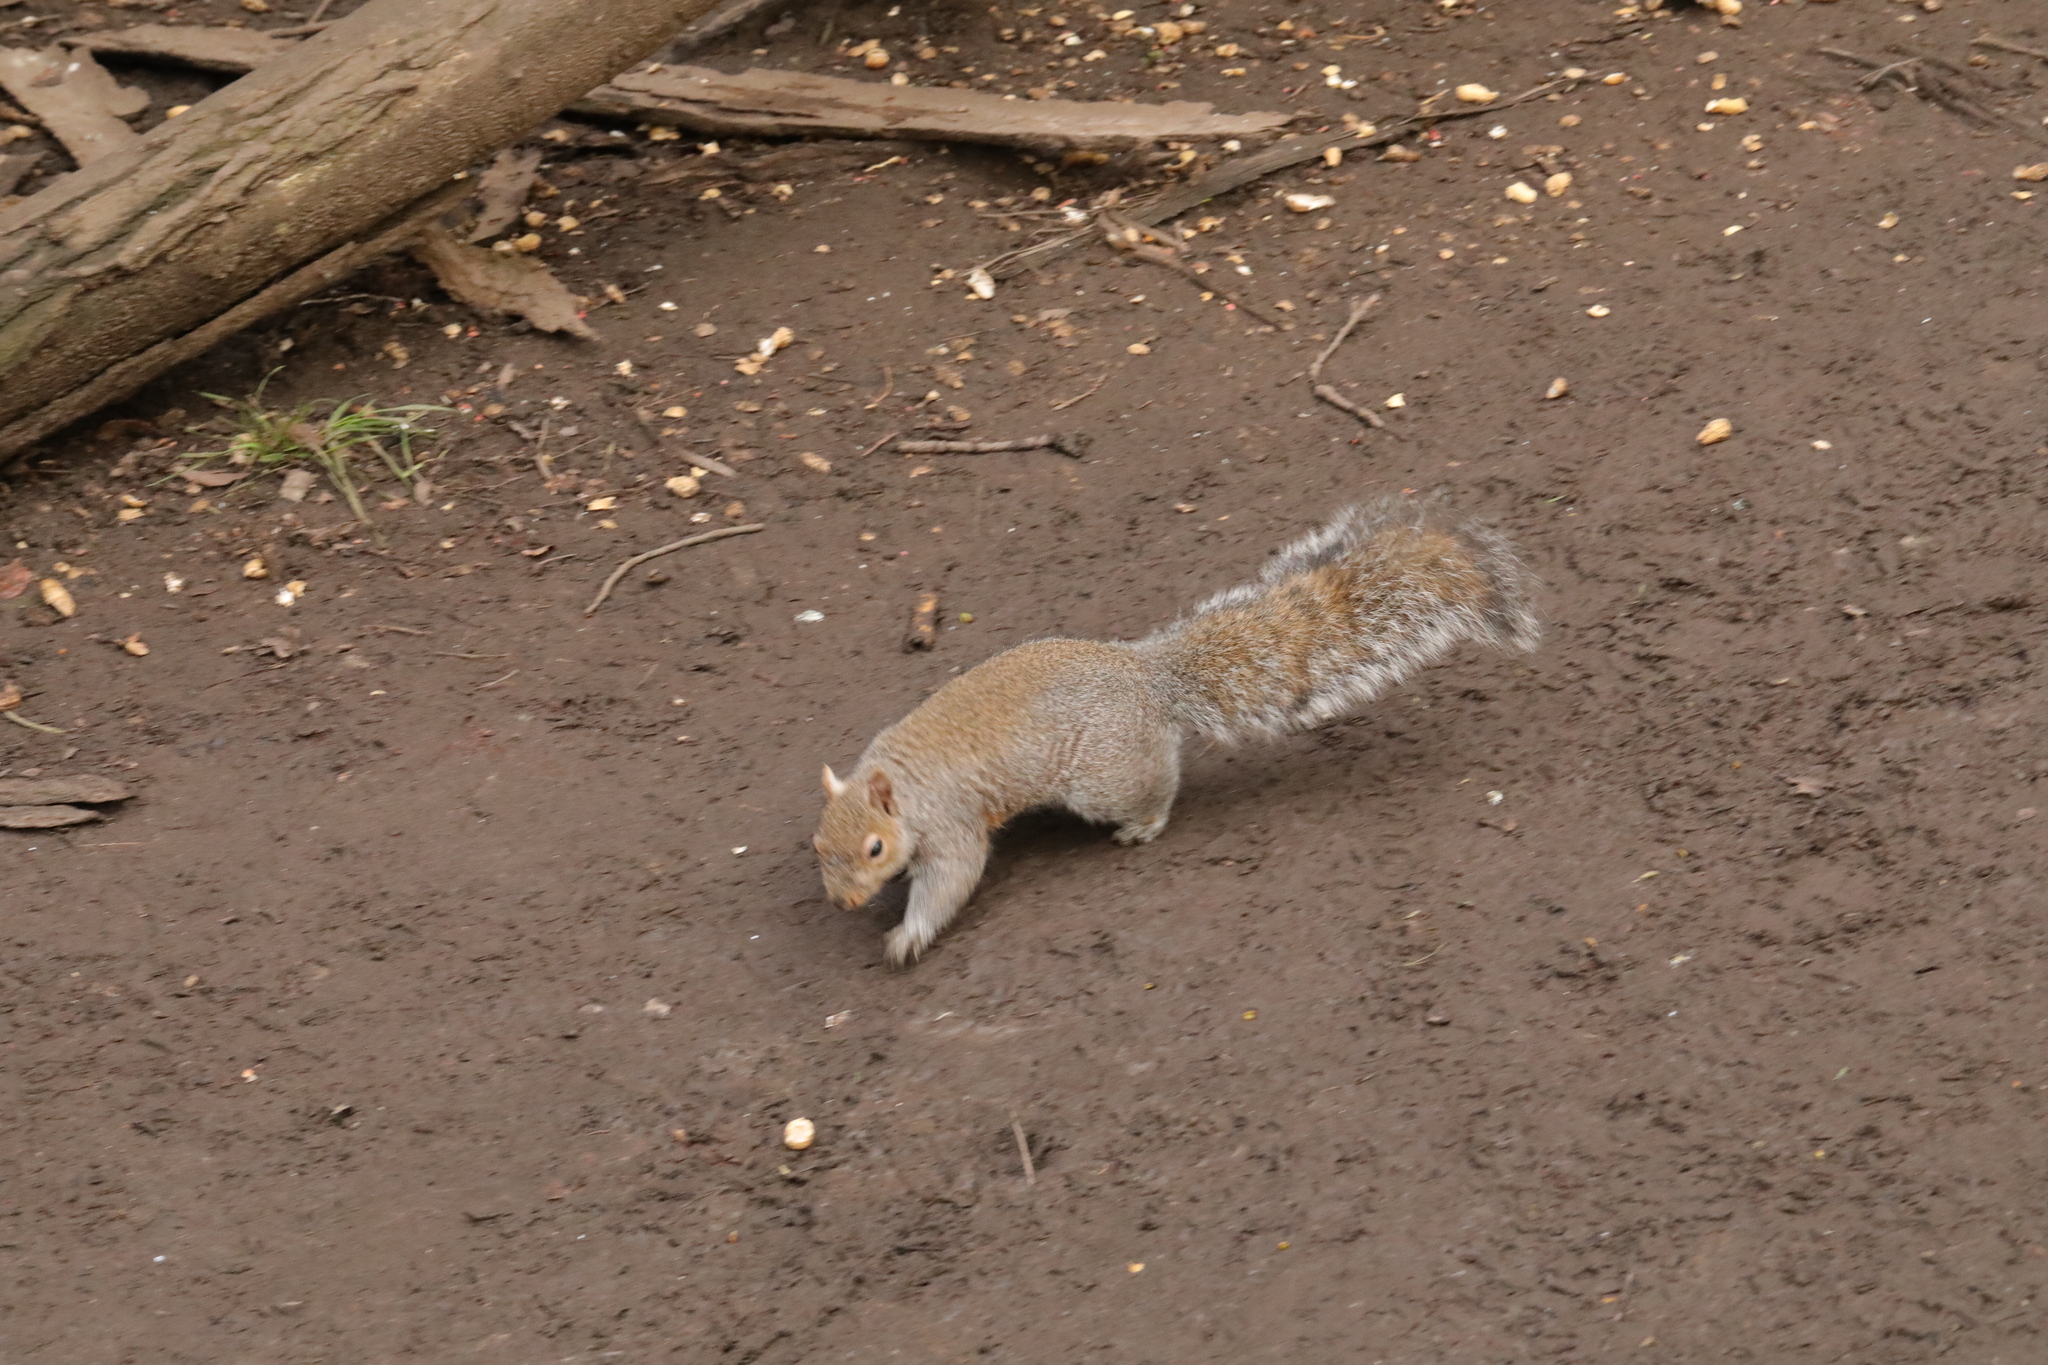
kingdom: Animalia
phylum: Chordata
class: Mammalia
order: Rodentia
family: Sciuridae
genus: Sciurus
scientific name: Sciurus carolinensis
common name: Eastern gray squirrel
